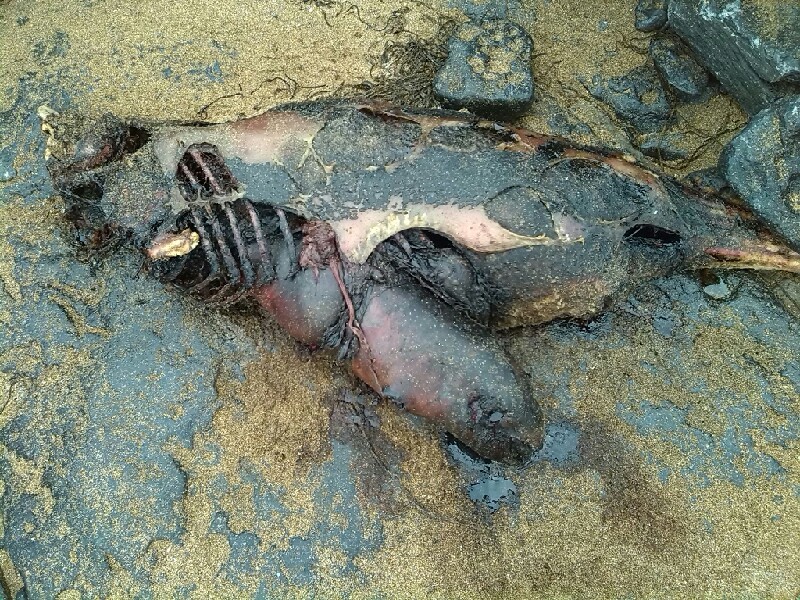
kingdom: Animalia
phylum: Chordata
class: Mammalia
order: Cetacea
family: Phocoenidae
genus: Phocoena
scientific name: Phocoena phocoena
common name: Harbor porpoise
